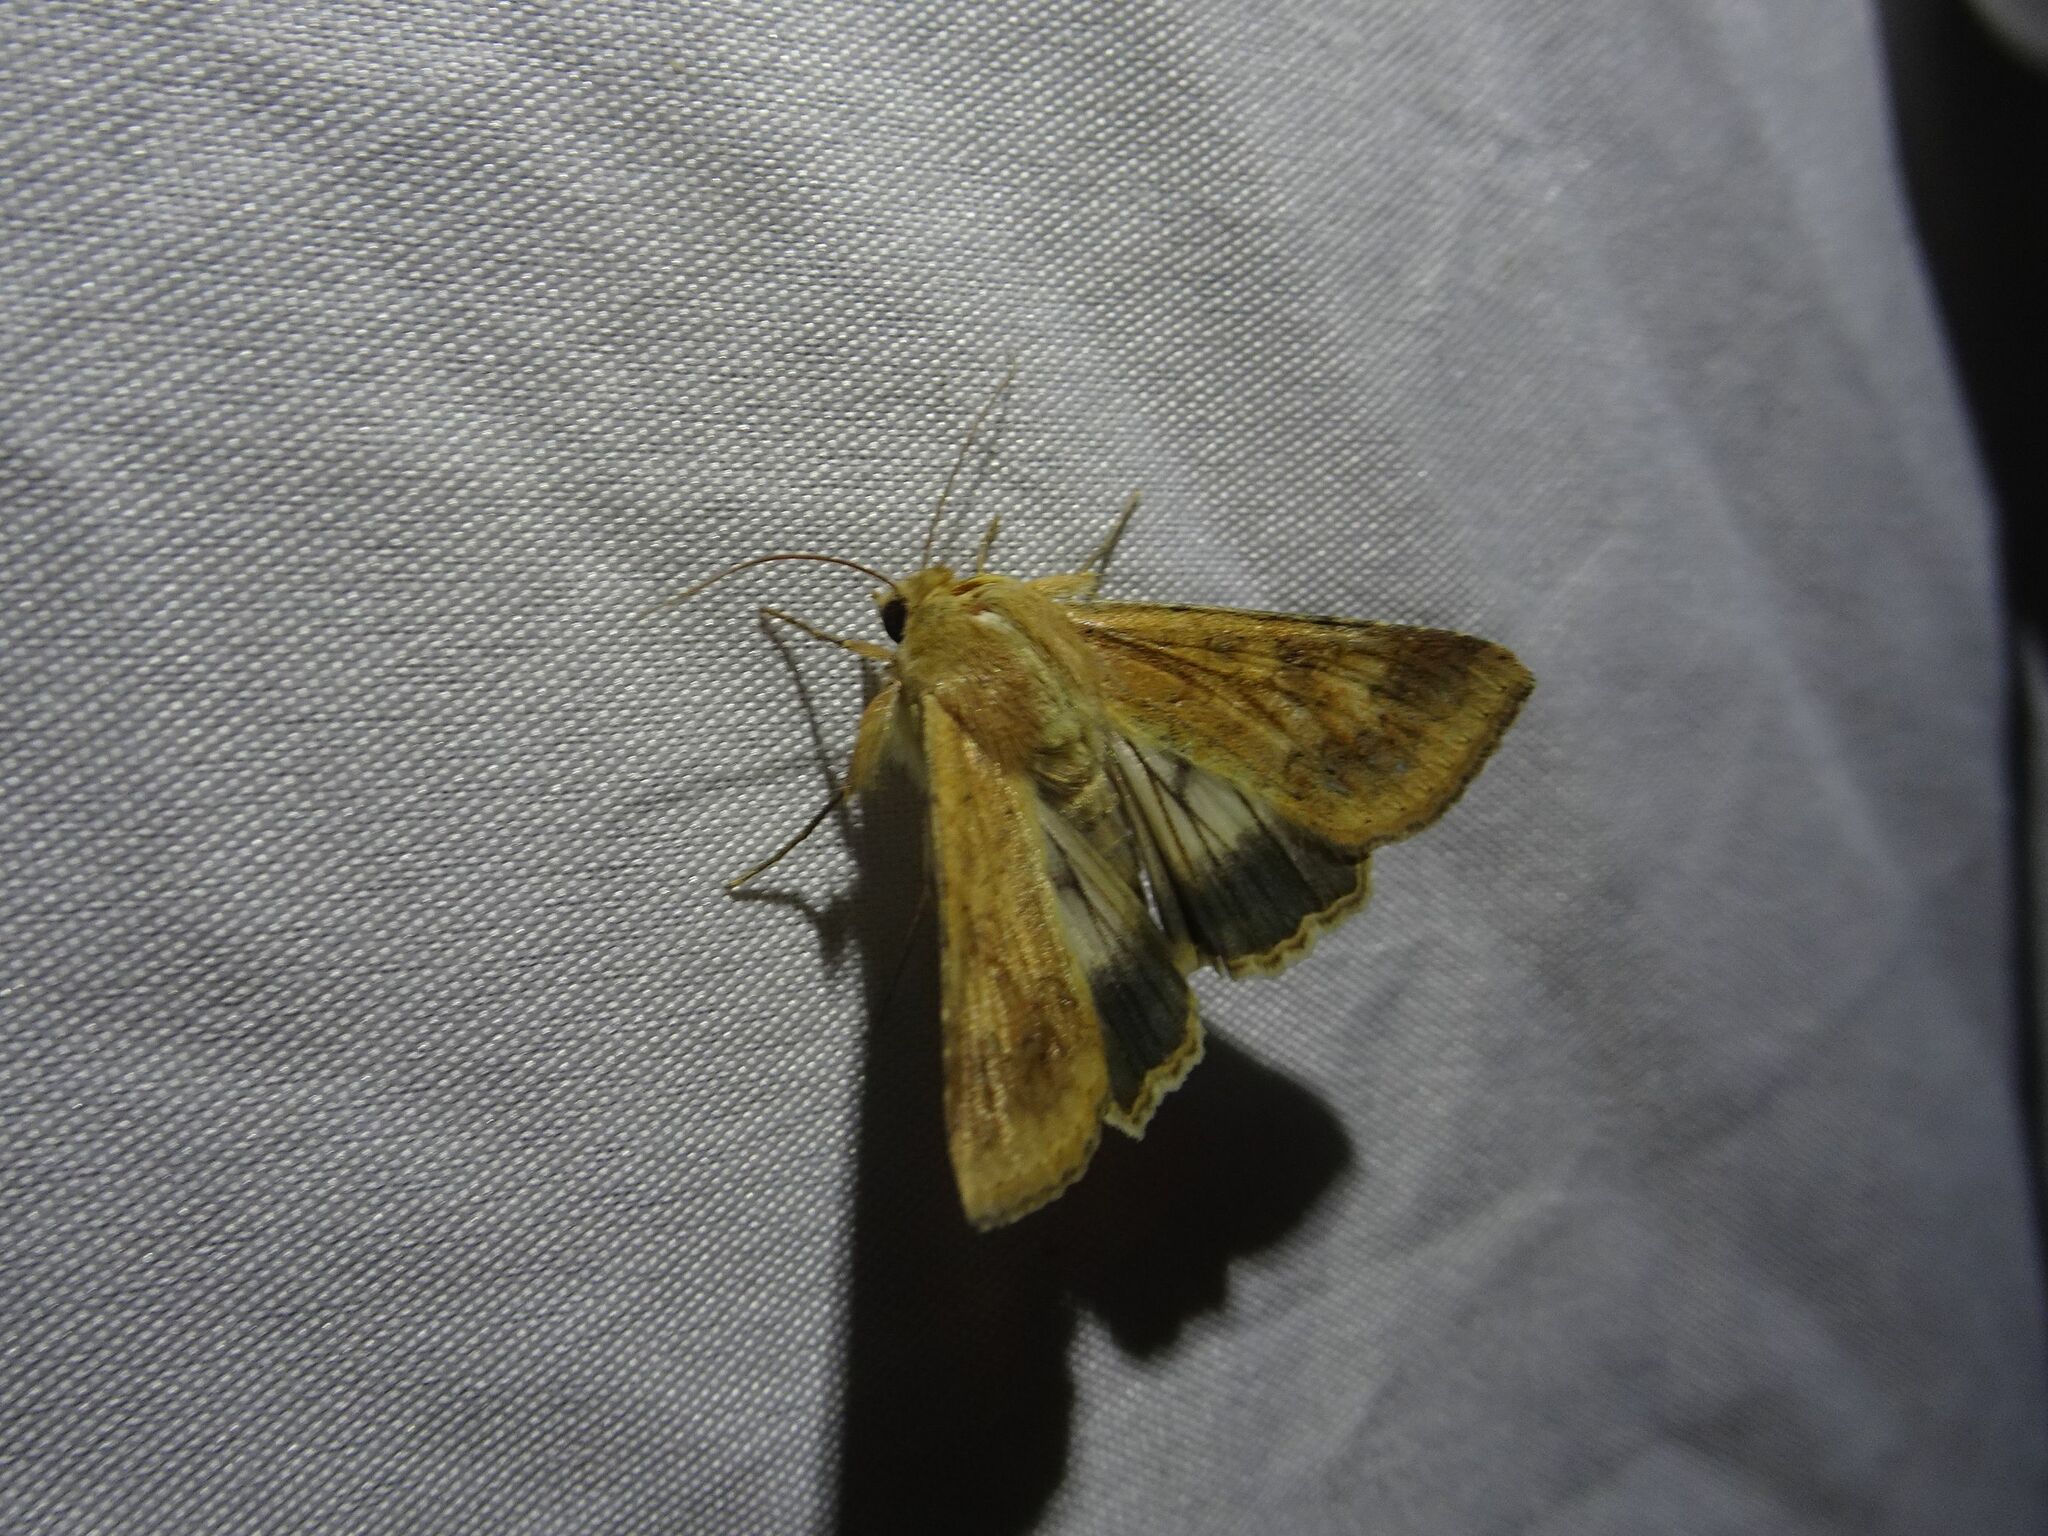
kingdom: Animalia
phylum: Arthropoda
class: Insecta
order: Lepidoptera
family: Noctuidae
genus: Helicoverpa
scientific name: Helicoverpa armigera
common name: Cotton bollworm
